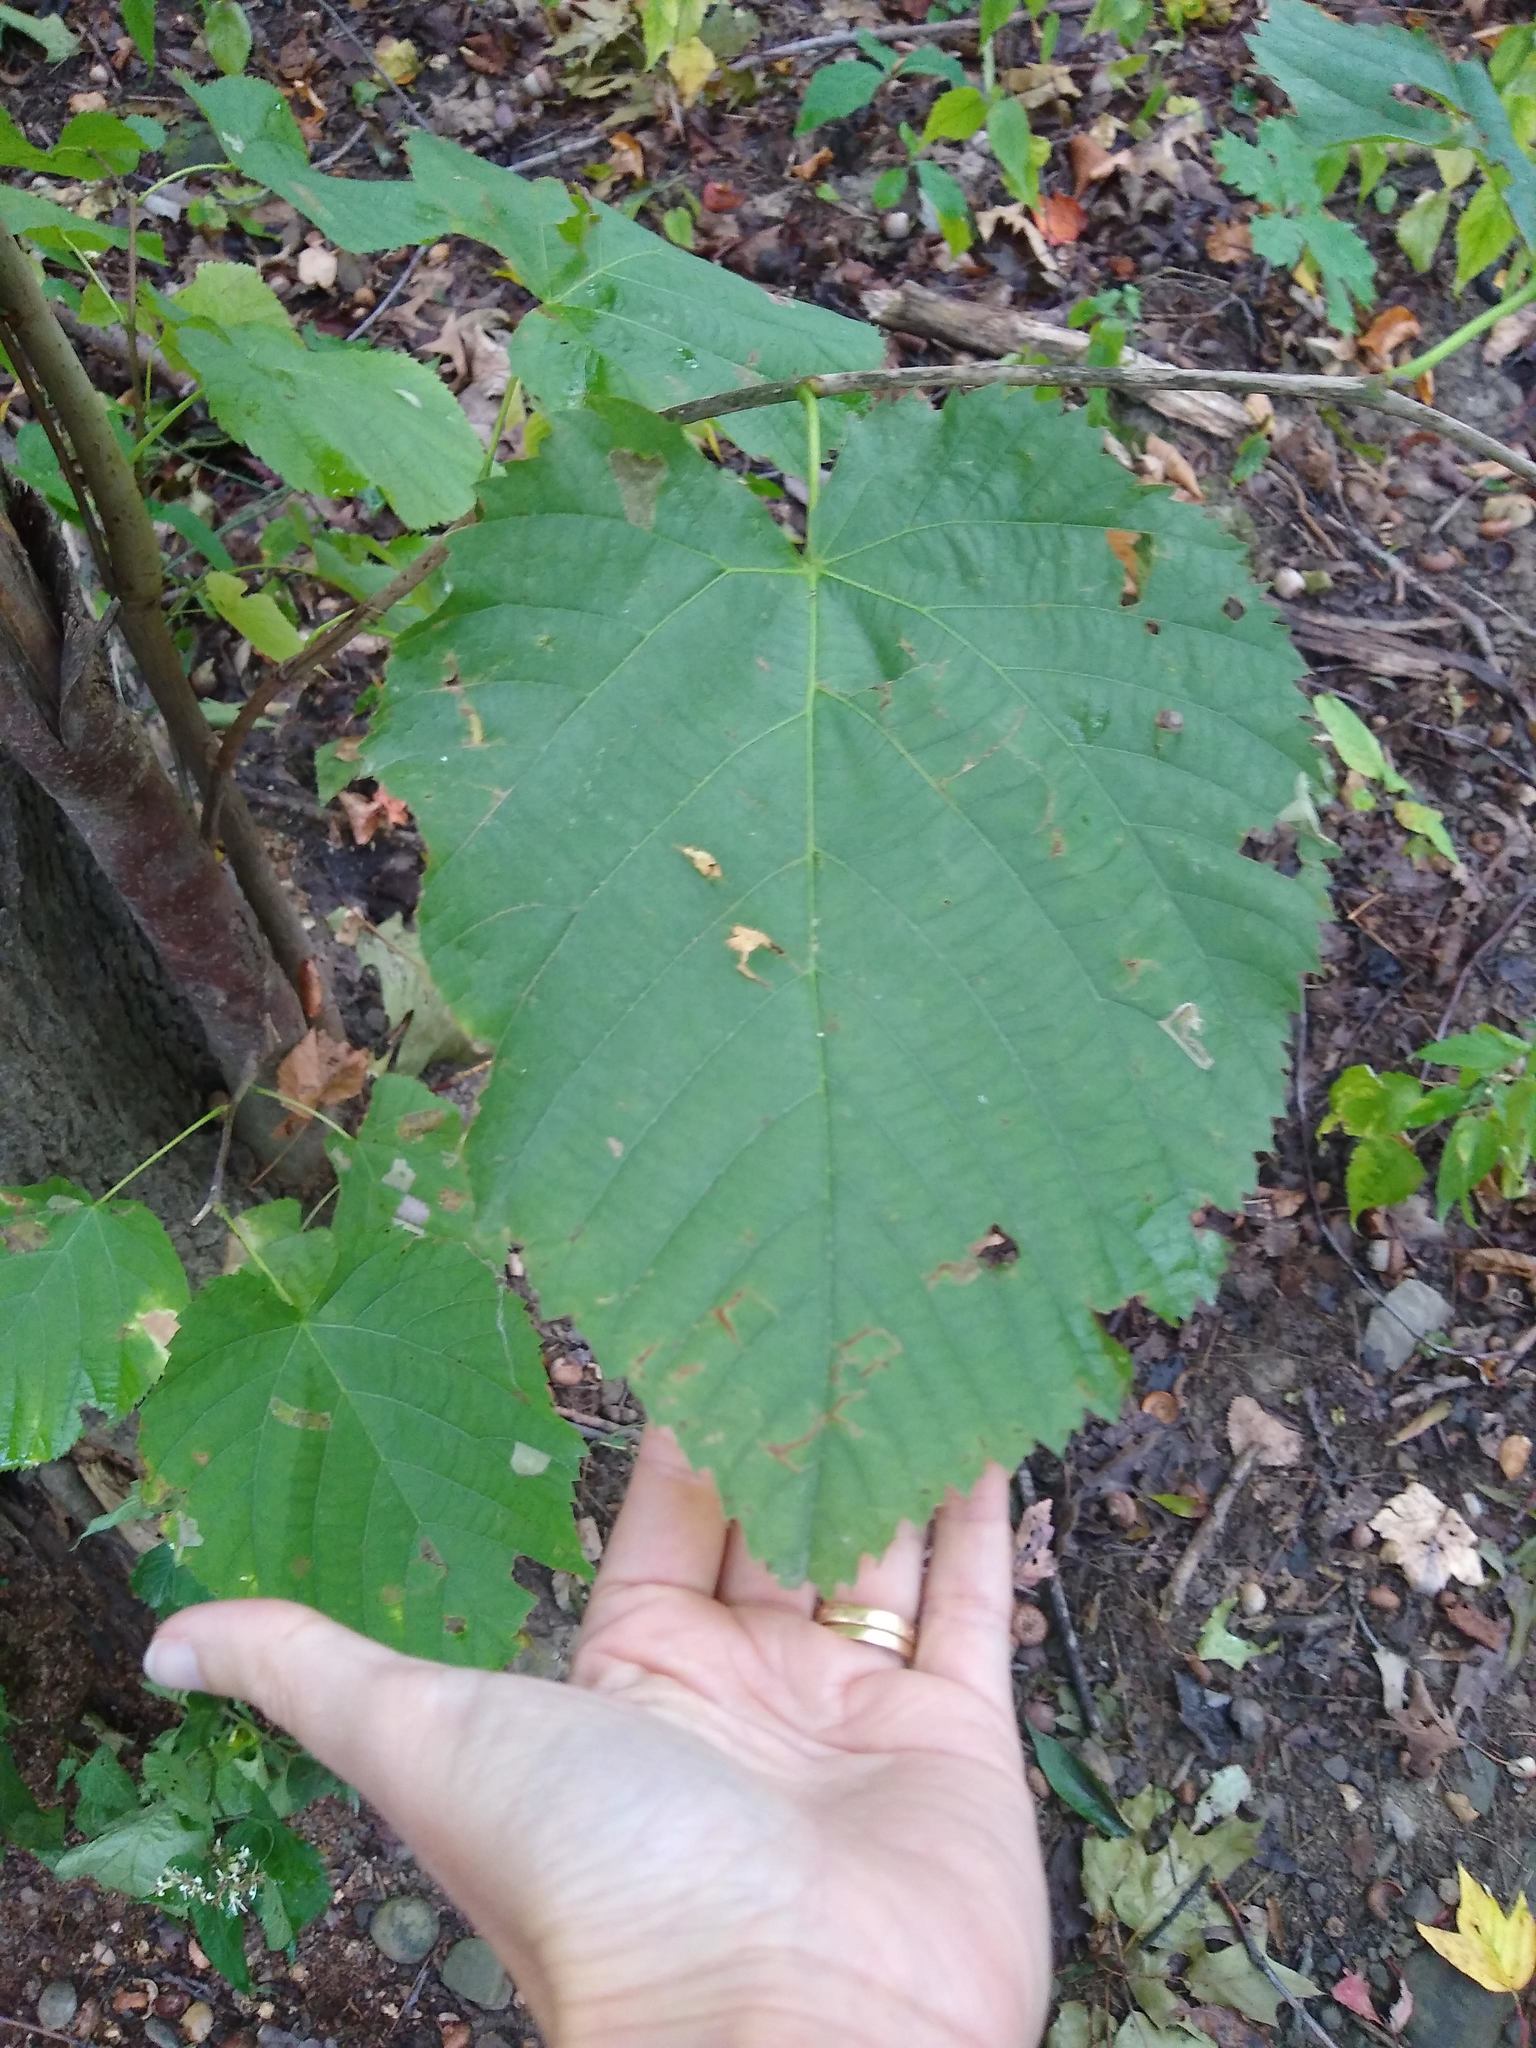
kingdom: Plantae
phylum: Tracheophyta
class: Magnoliopsida
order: Malvales
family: Malvaceae
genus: Tilia
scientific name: Tilia americana
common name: Basswood
